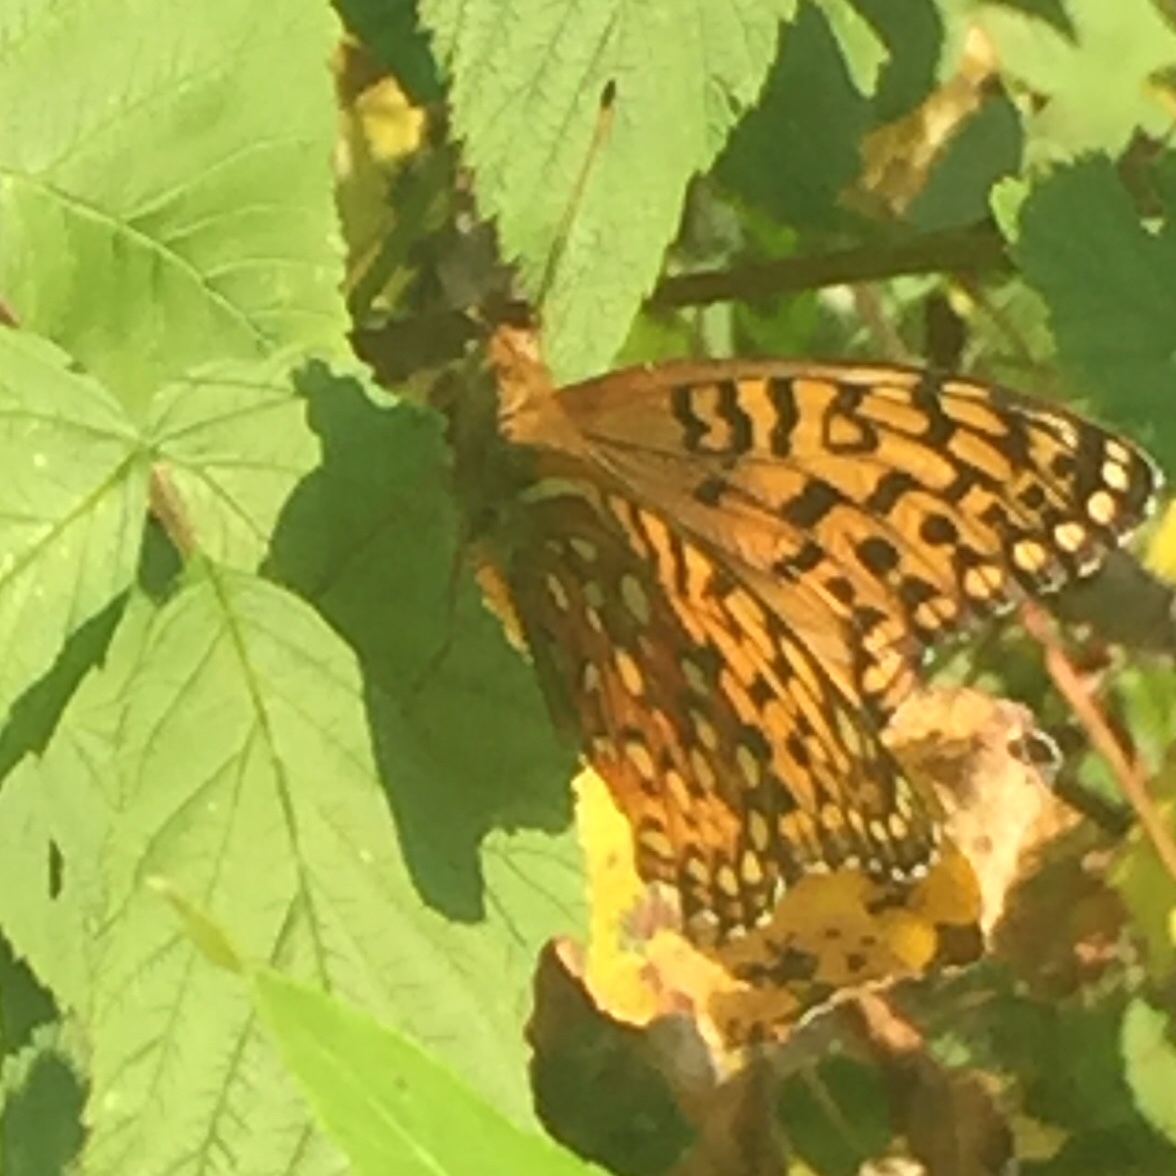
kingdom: Animalia
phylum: Arthropoda
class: Insecta
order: Lepidoptera
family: Nymphalidae
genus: Speyeria
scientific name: Speyeria aphrodite
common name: Aphrodite friitllary
